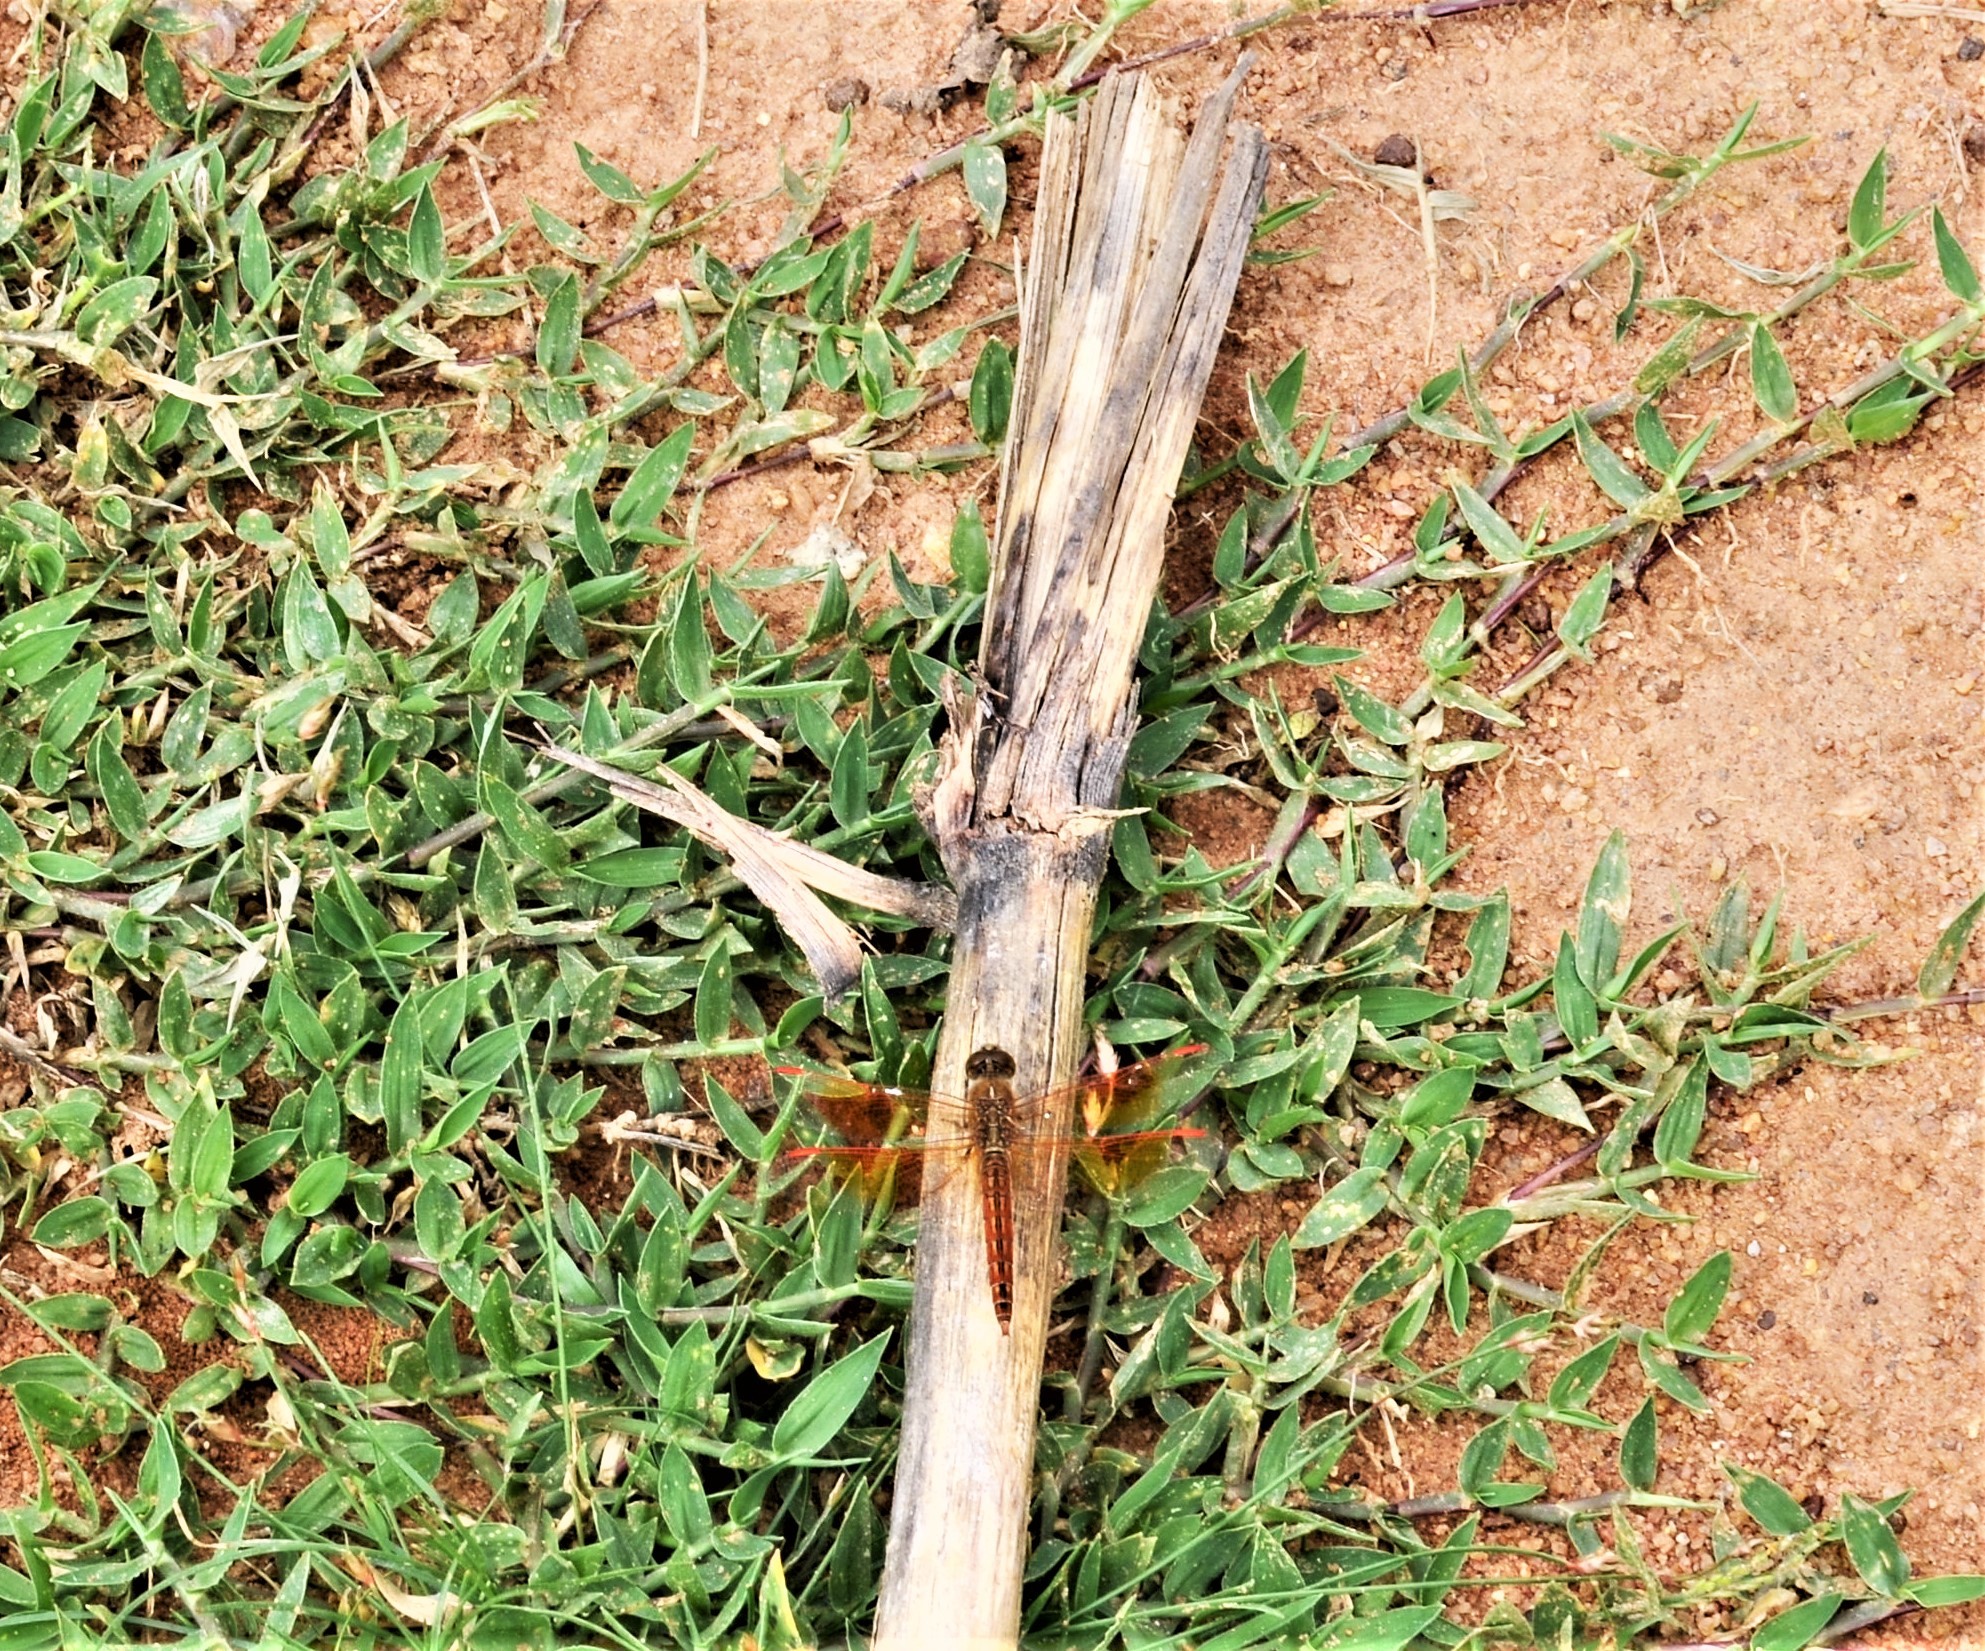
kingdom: Animalia
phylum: Arthropoda
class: Insecta
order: Odonata
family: Libellulidae
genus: Brachythemis
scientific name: Brachythemis contaminata
